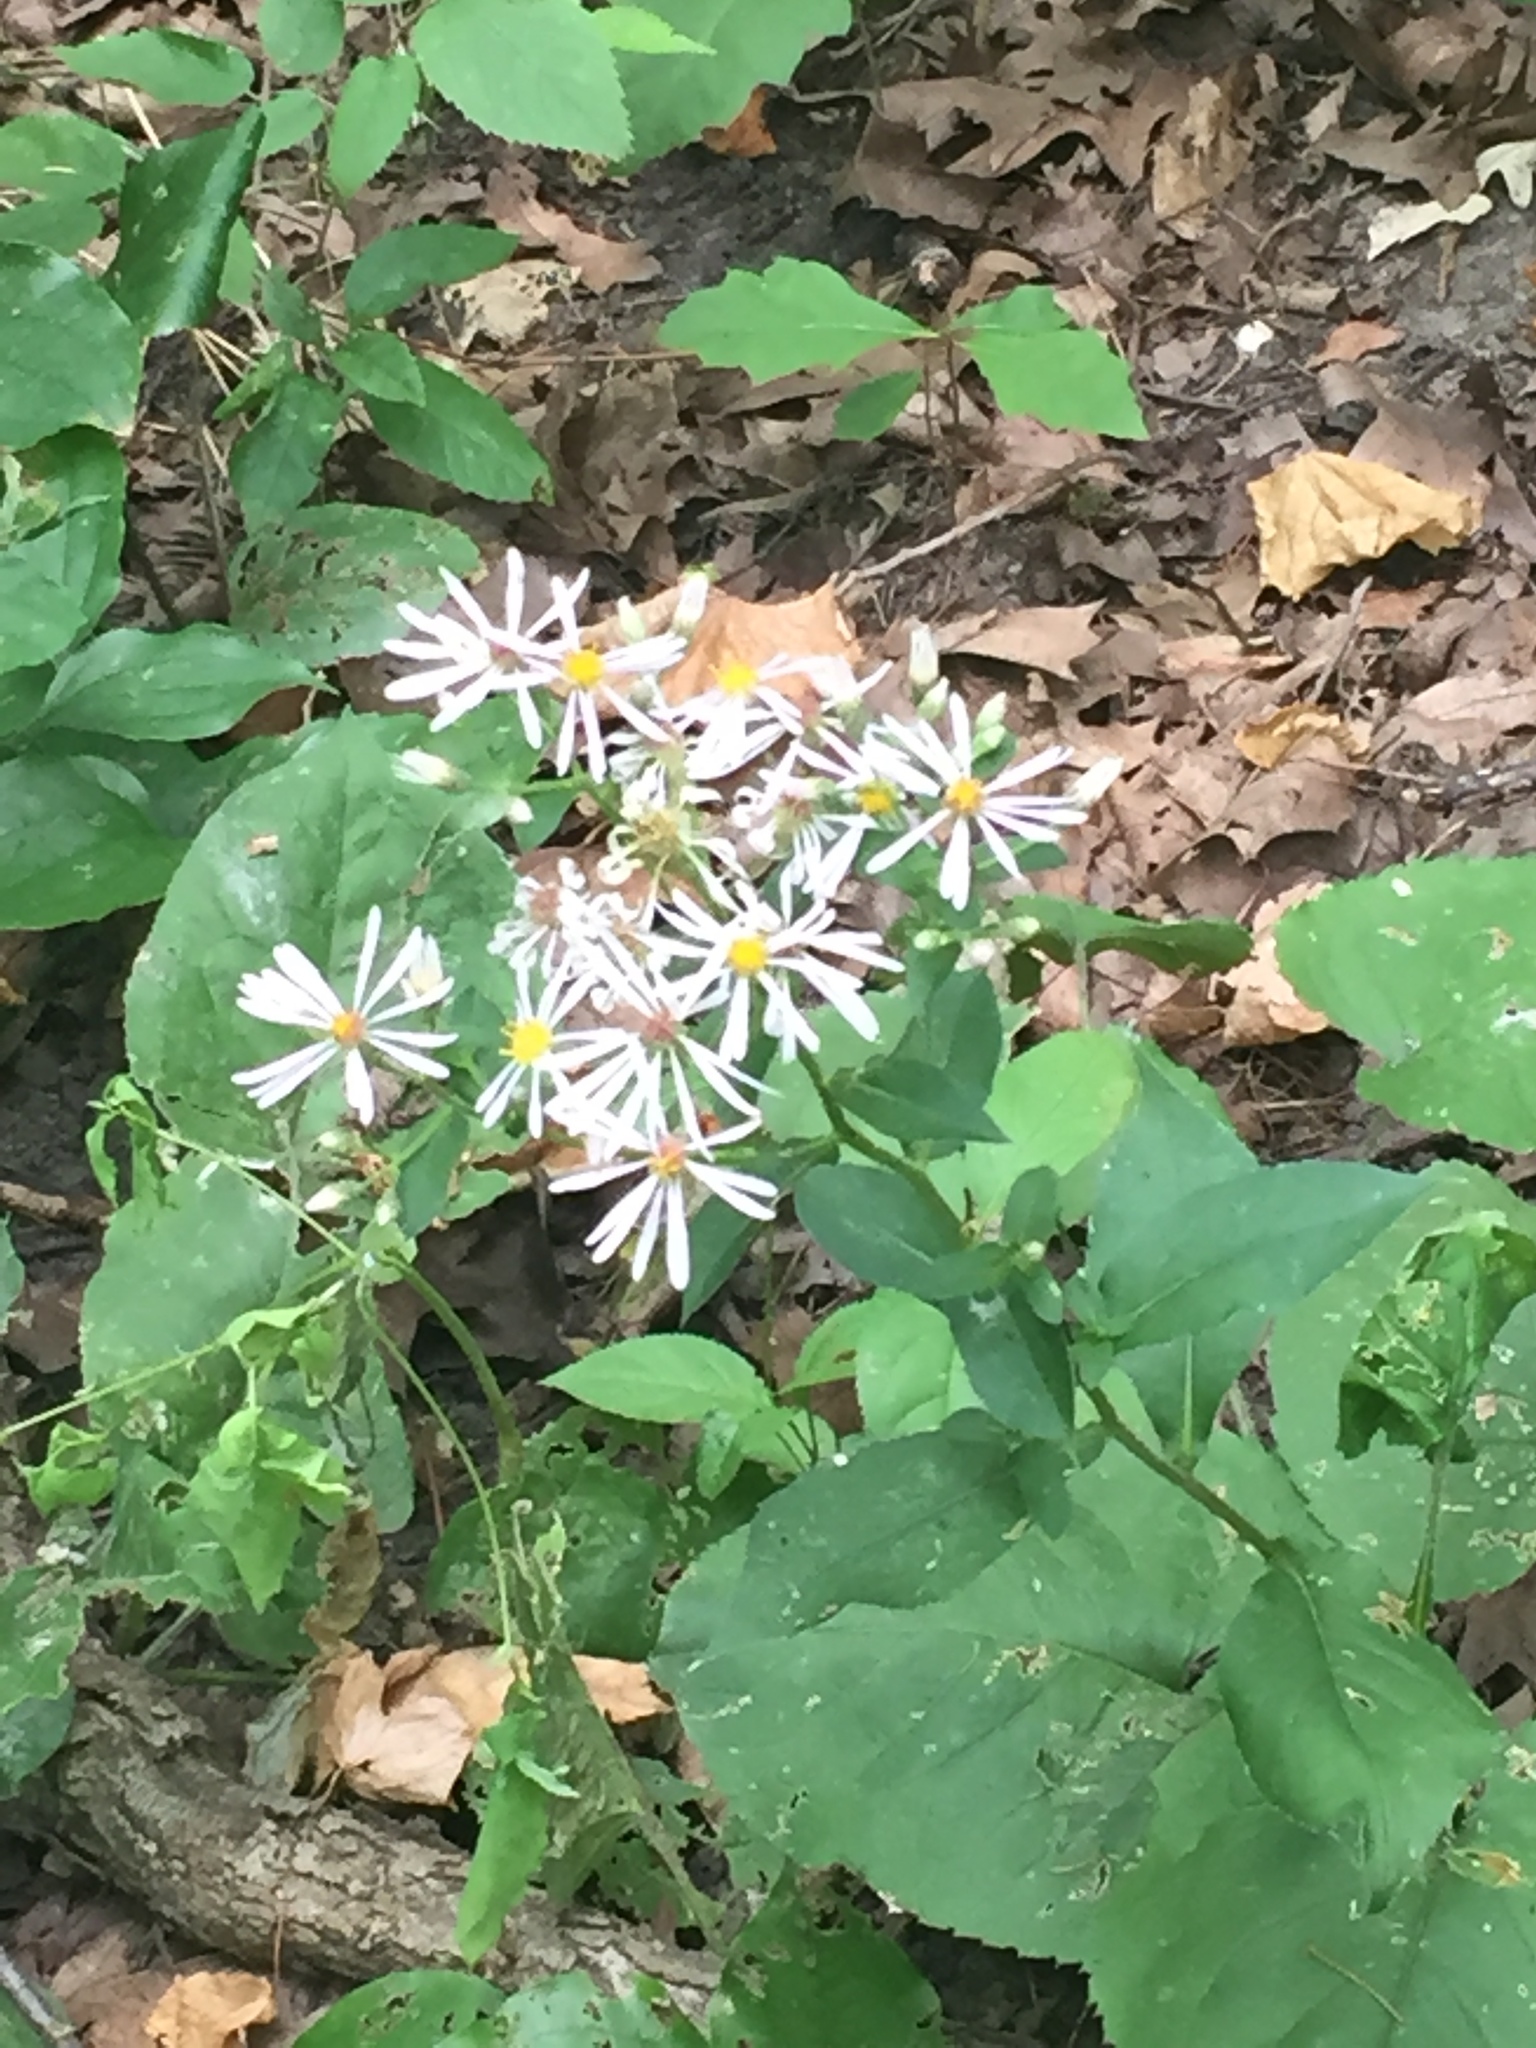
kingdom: Plantae
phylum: Tracheophyta
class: Magnoliopsida
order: Asterales
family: Asteraceae
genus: Eurybia
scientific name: Eurybia macrophylla
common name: Big-leaved aster
